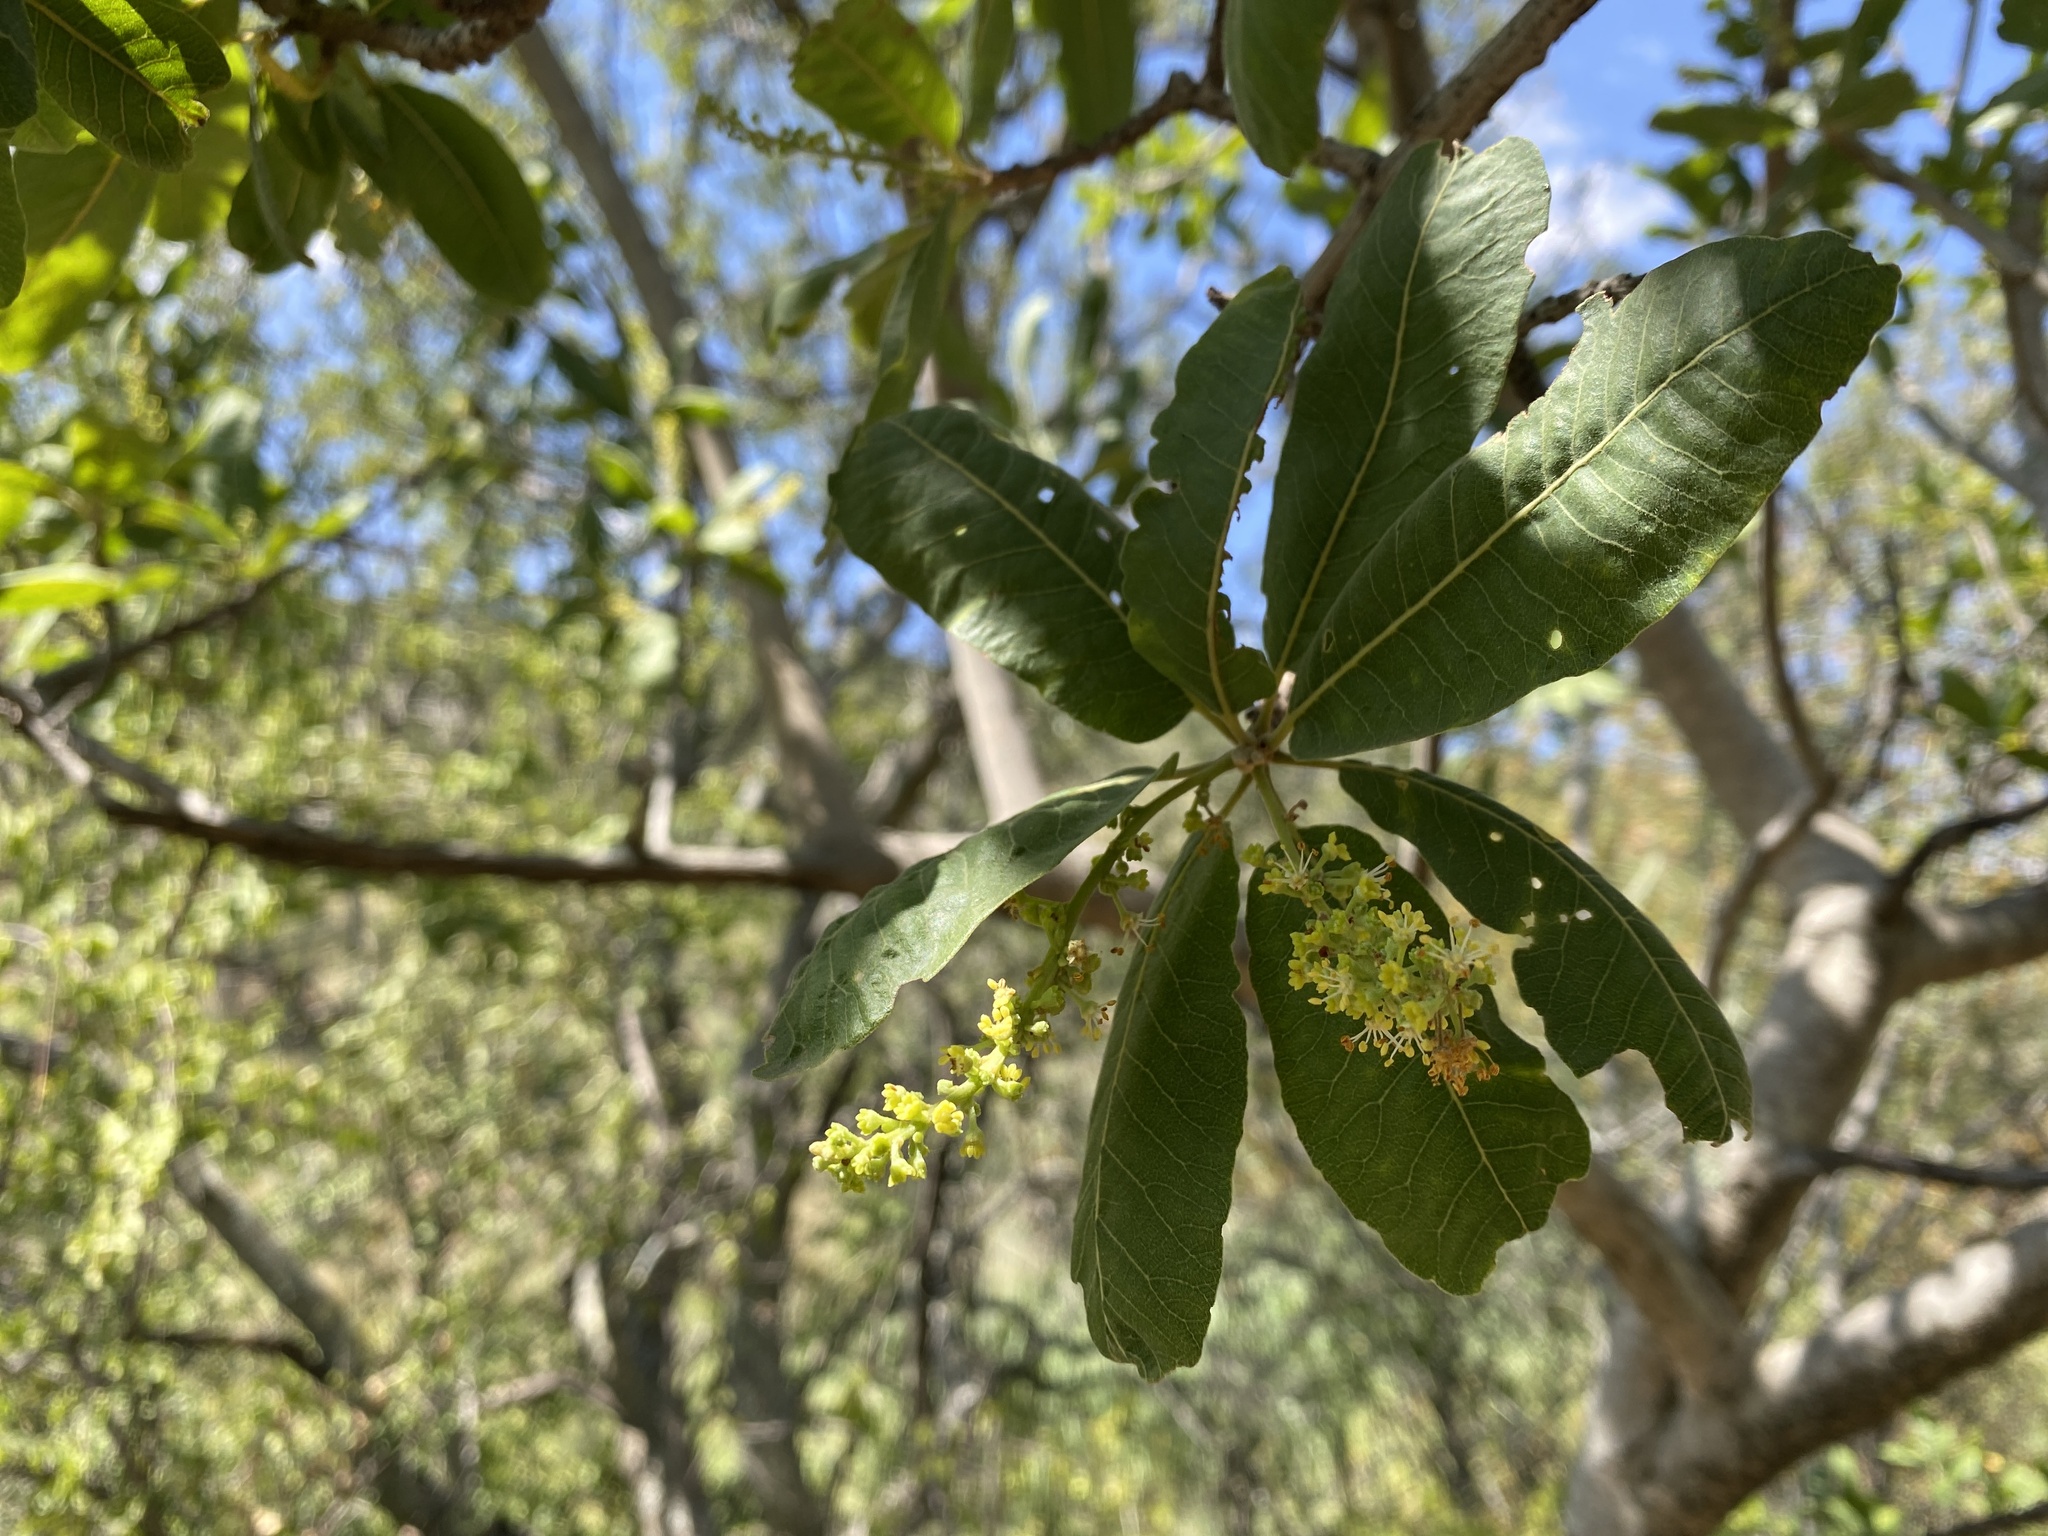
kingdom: Plantae
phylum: Tracheophyta
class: Magnoliopsida
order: Sapindales
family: Sapindaceae
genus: Pappea
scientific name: Pappea capensis
